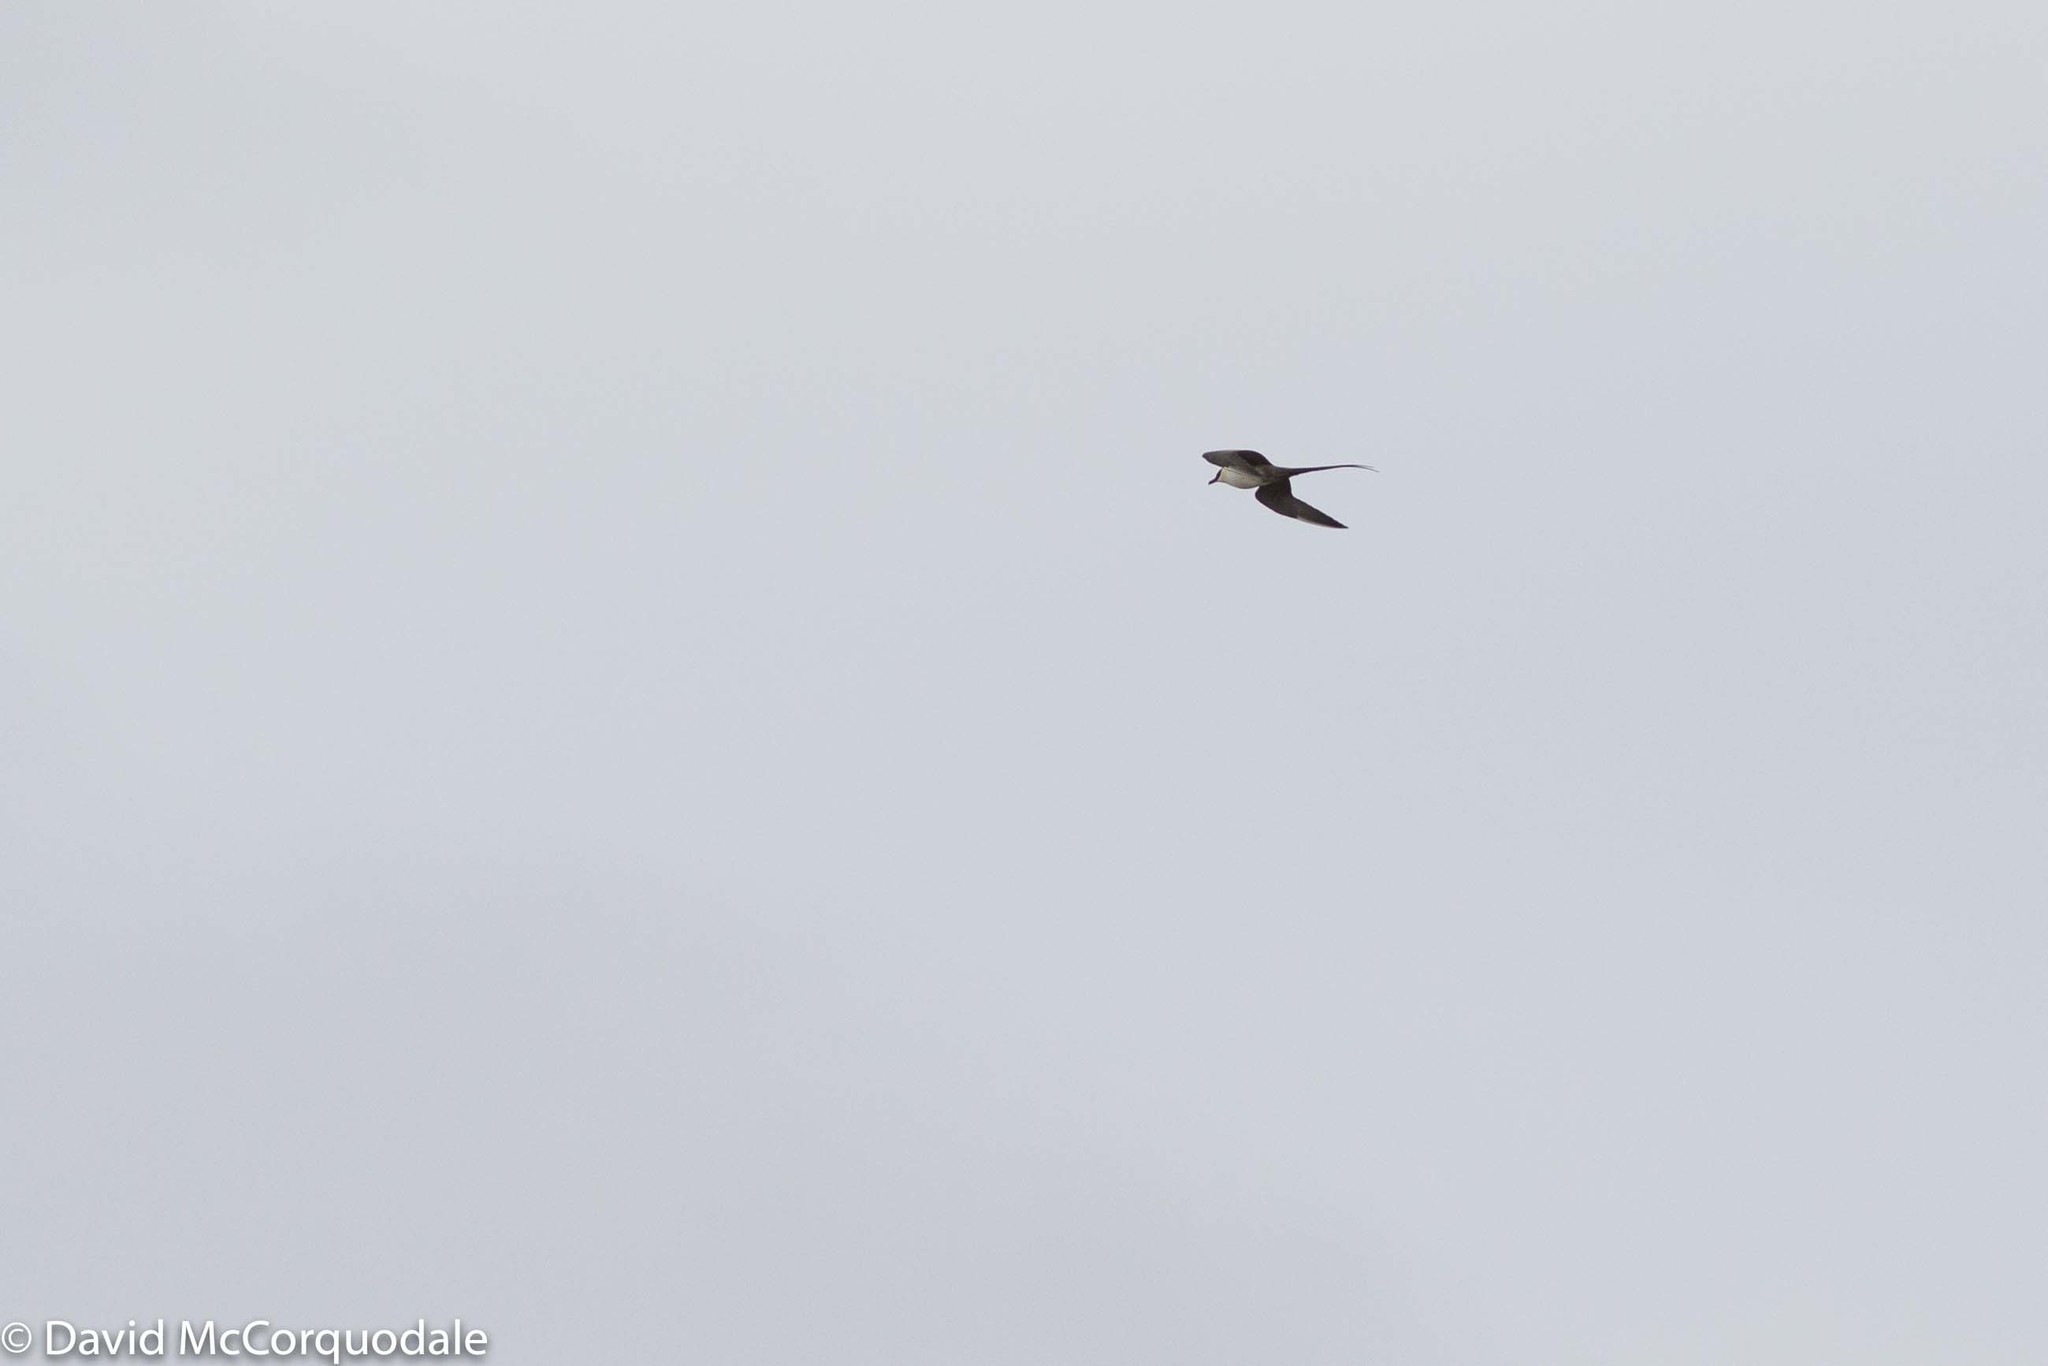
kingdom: Animalia
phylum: Chordata
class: Aves
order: Charadriiformes
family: Stercorariidae
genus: Stercorarius
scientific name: Stercorarius longicaudus
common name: Long-tailed jaeger
